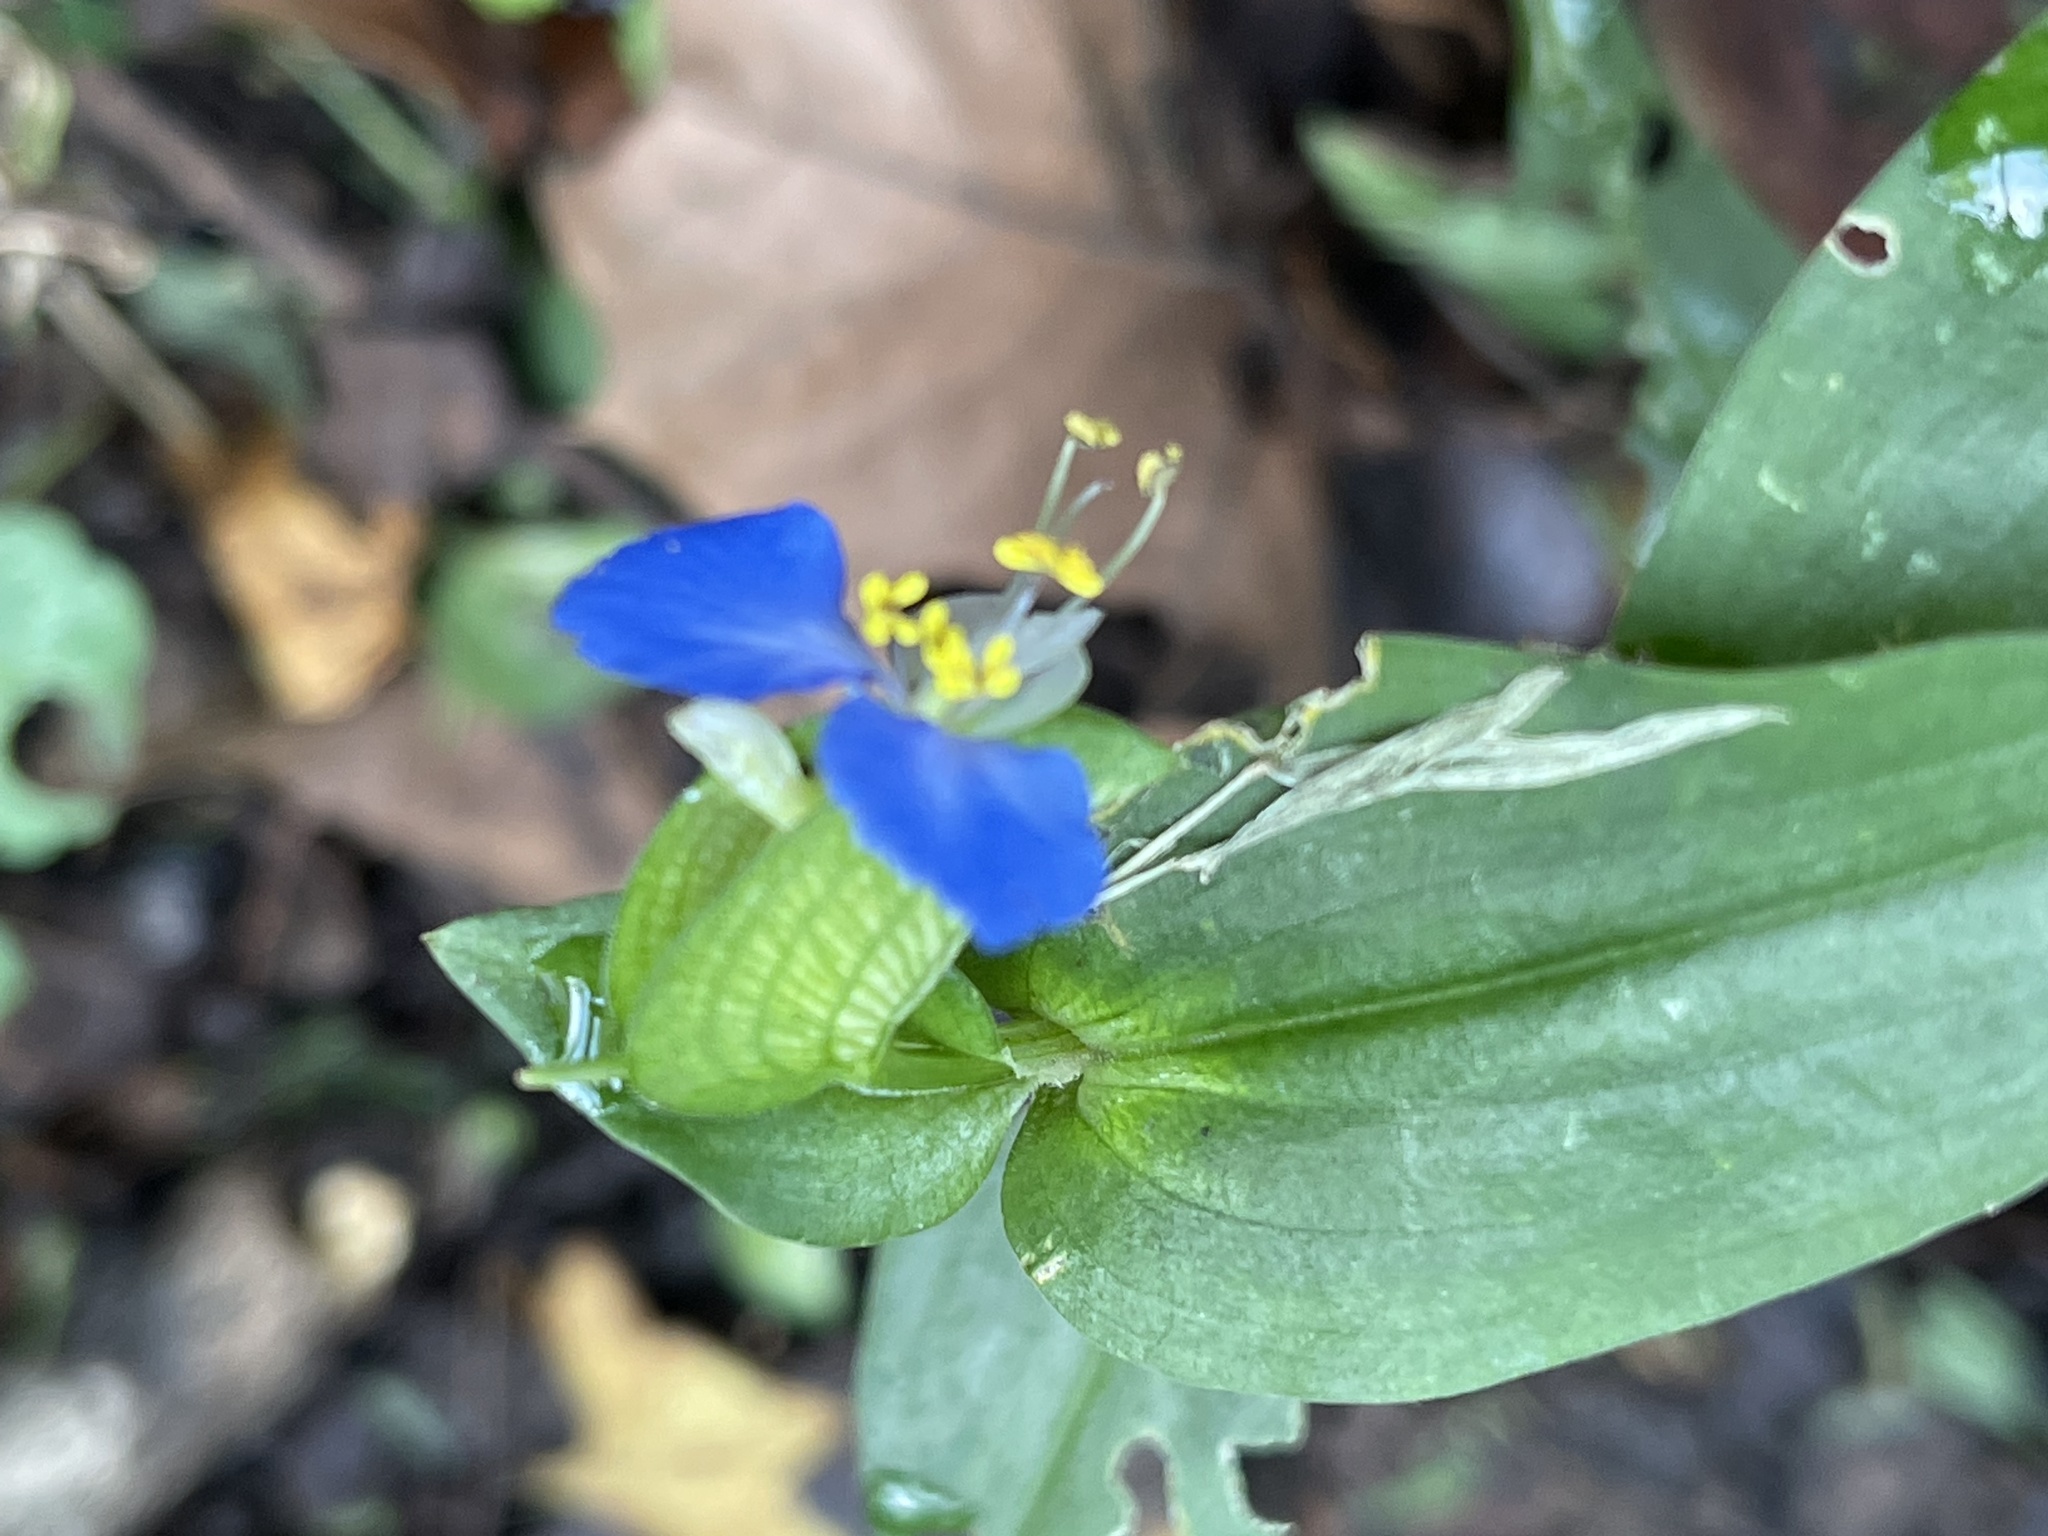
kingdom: Plantae
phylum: Tracheophyta
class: Liliopsida
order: Commelinales
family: Commelinaceae
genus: Commelina
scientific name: Commelina communis
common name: Asiatic dayflower
